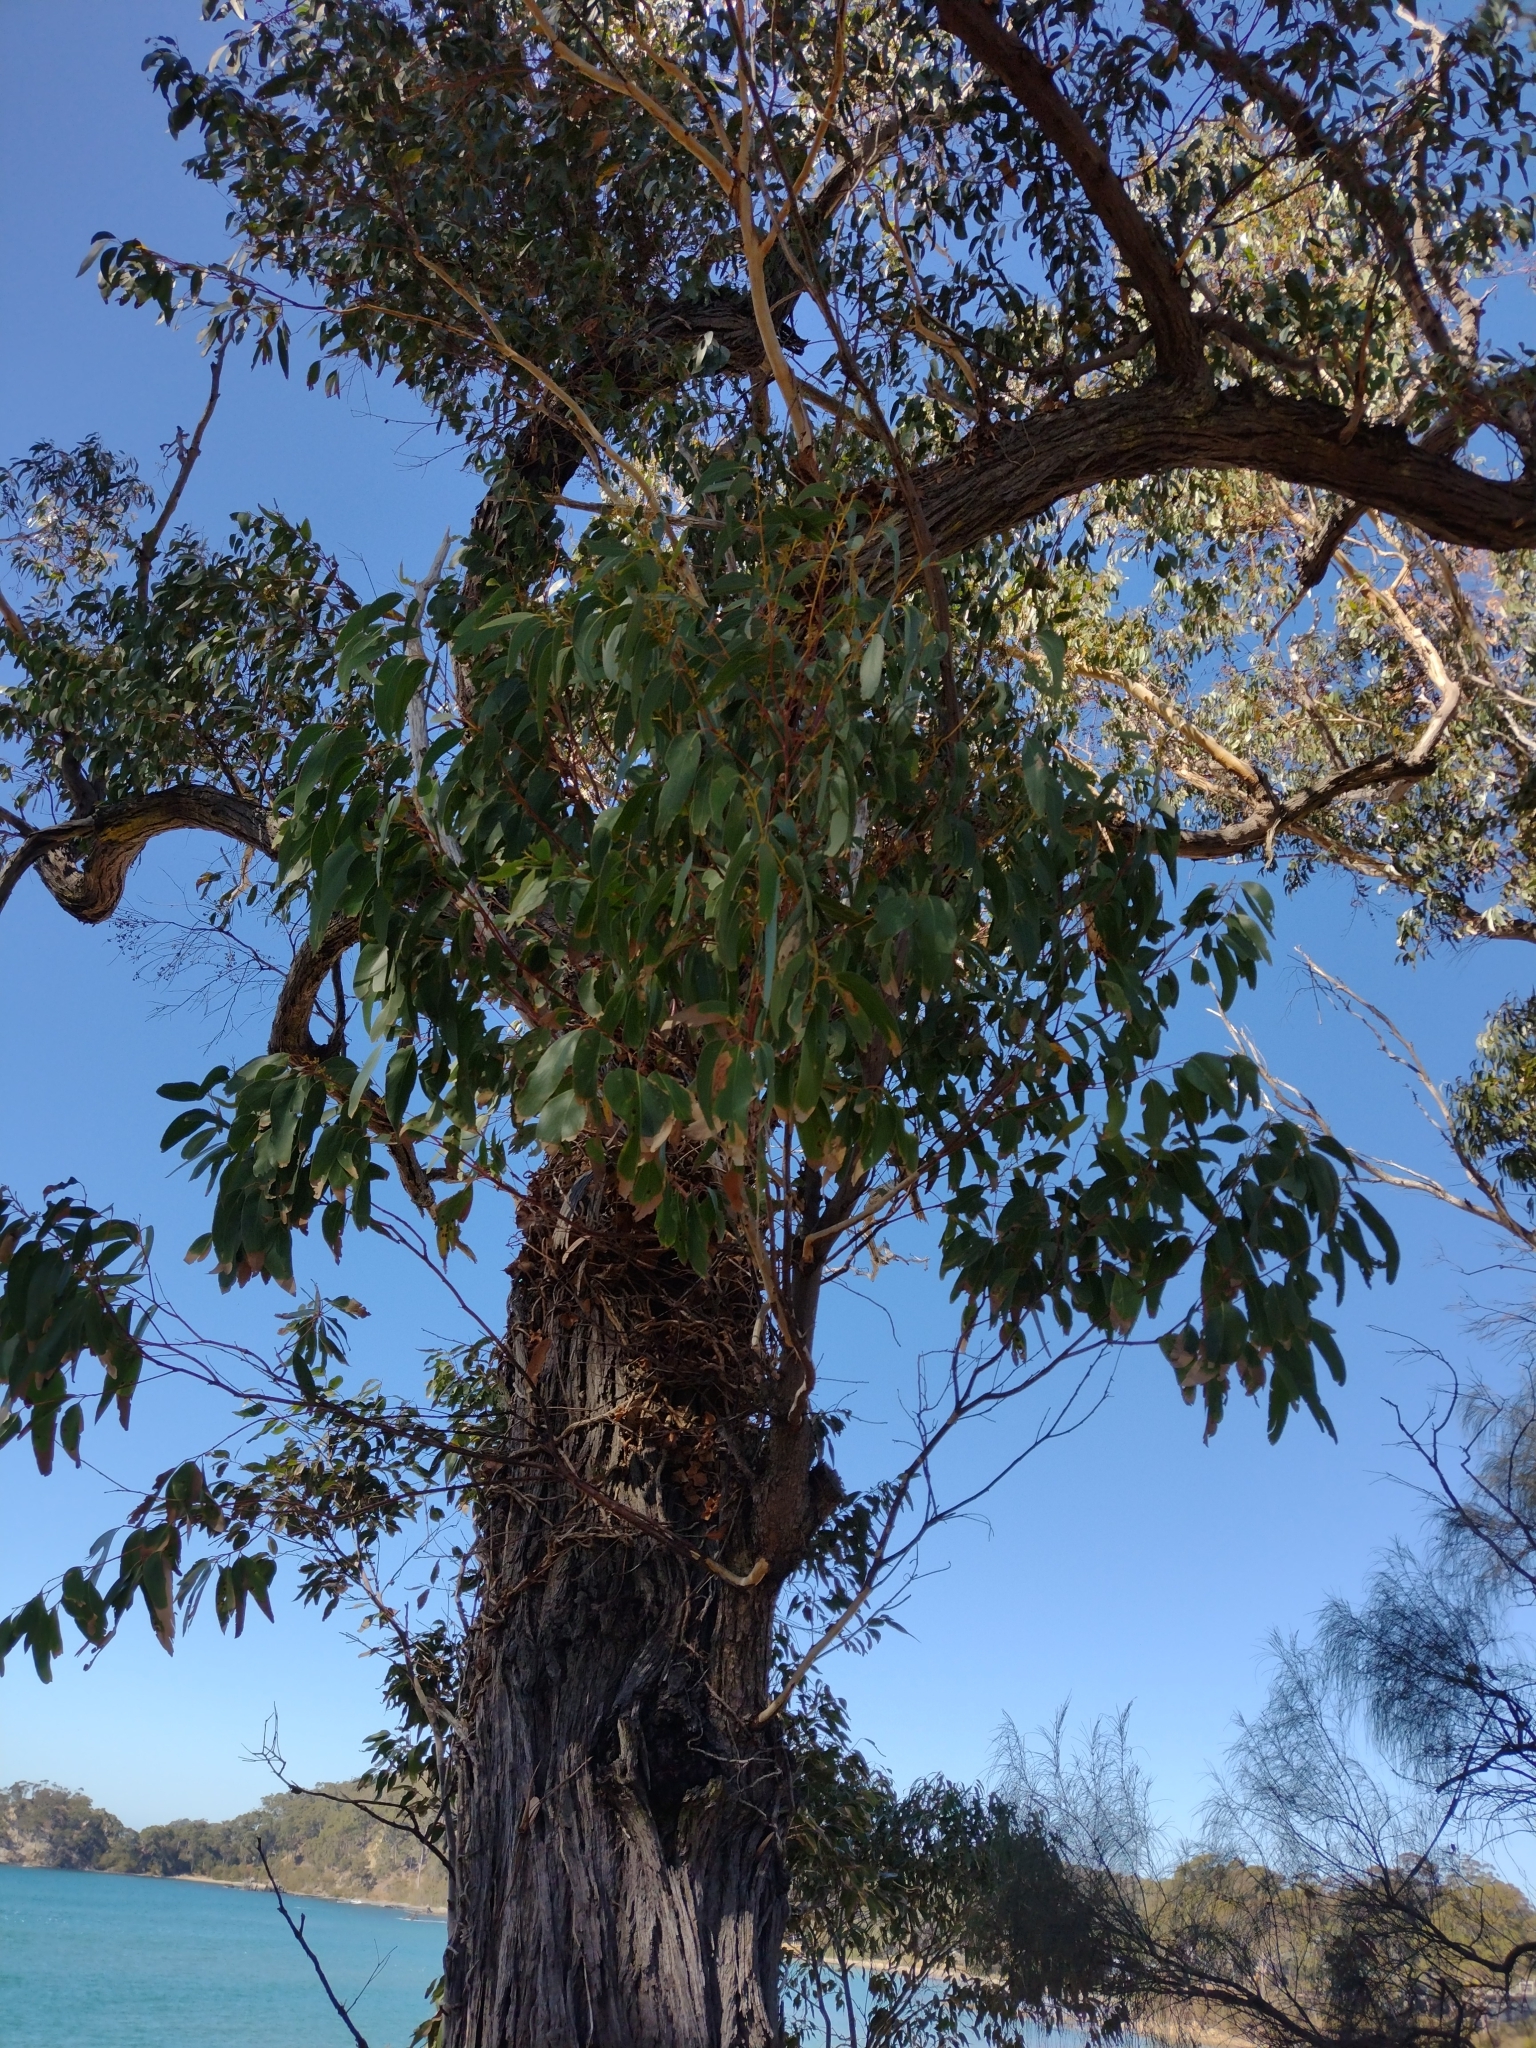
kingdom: Plantae
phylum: Tracheophyta
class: Magnoliopsida
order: Myrtales
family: Myrtaceae
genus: Eucalyptus
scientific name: Eucalyptus sieberi
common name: Black-ash
